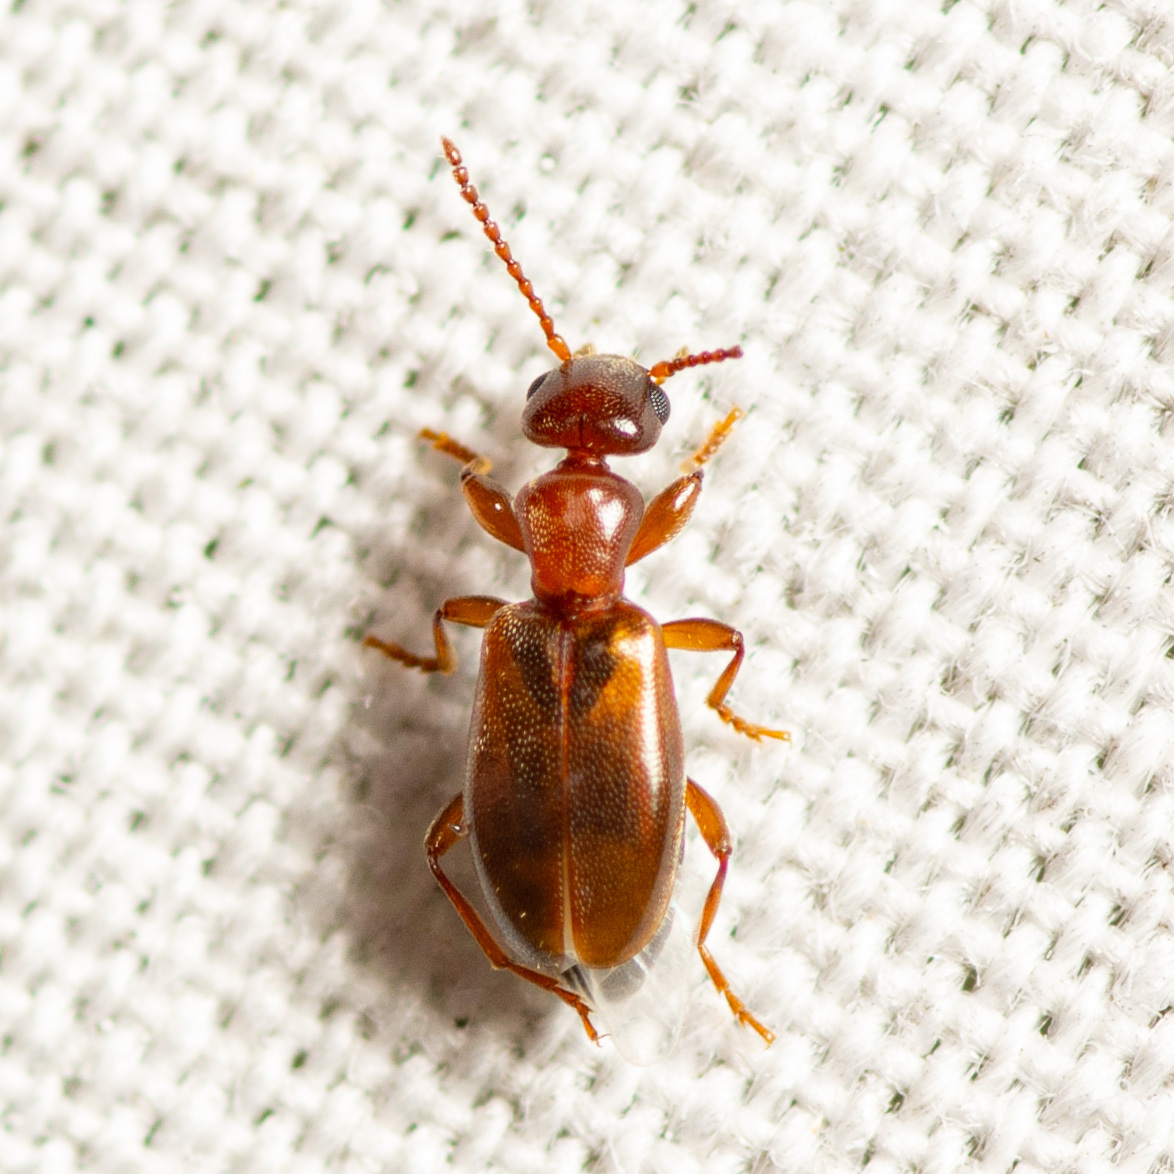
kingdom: Animalia
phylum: Arthropoda
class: Insecta
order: Coleoptera
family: Anthicidae
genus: Omonadus
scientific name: Omonadus floralis
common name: Narrownecked grain beetle
